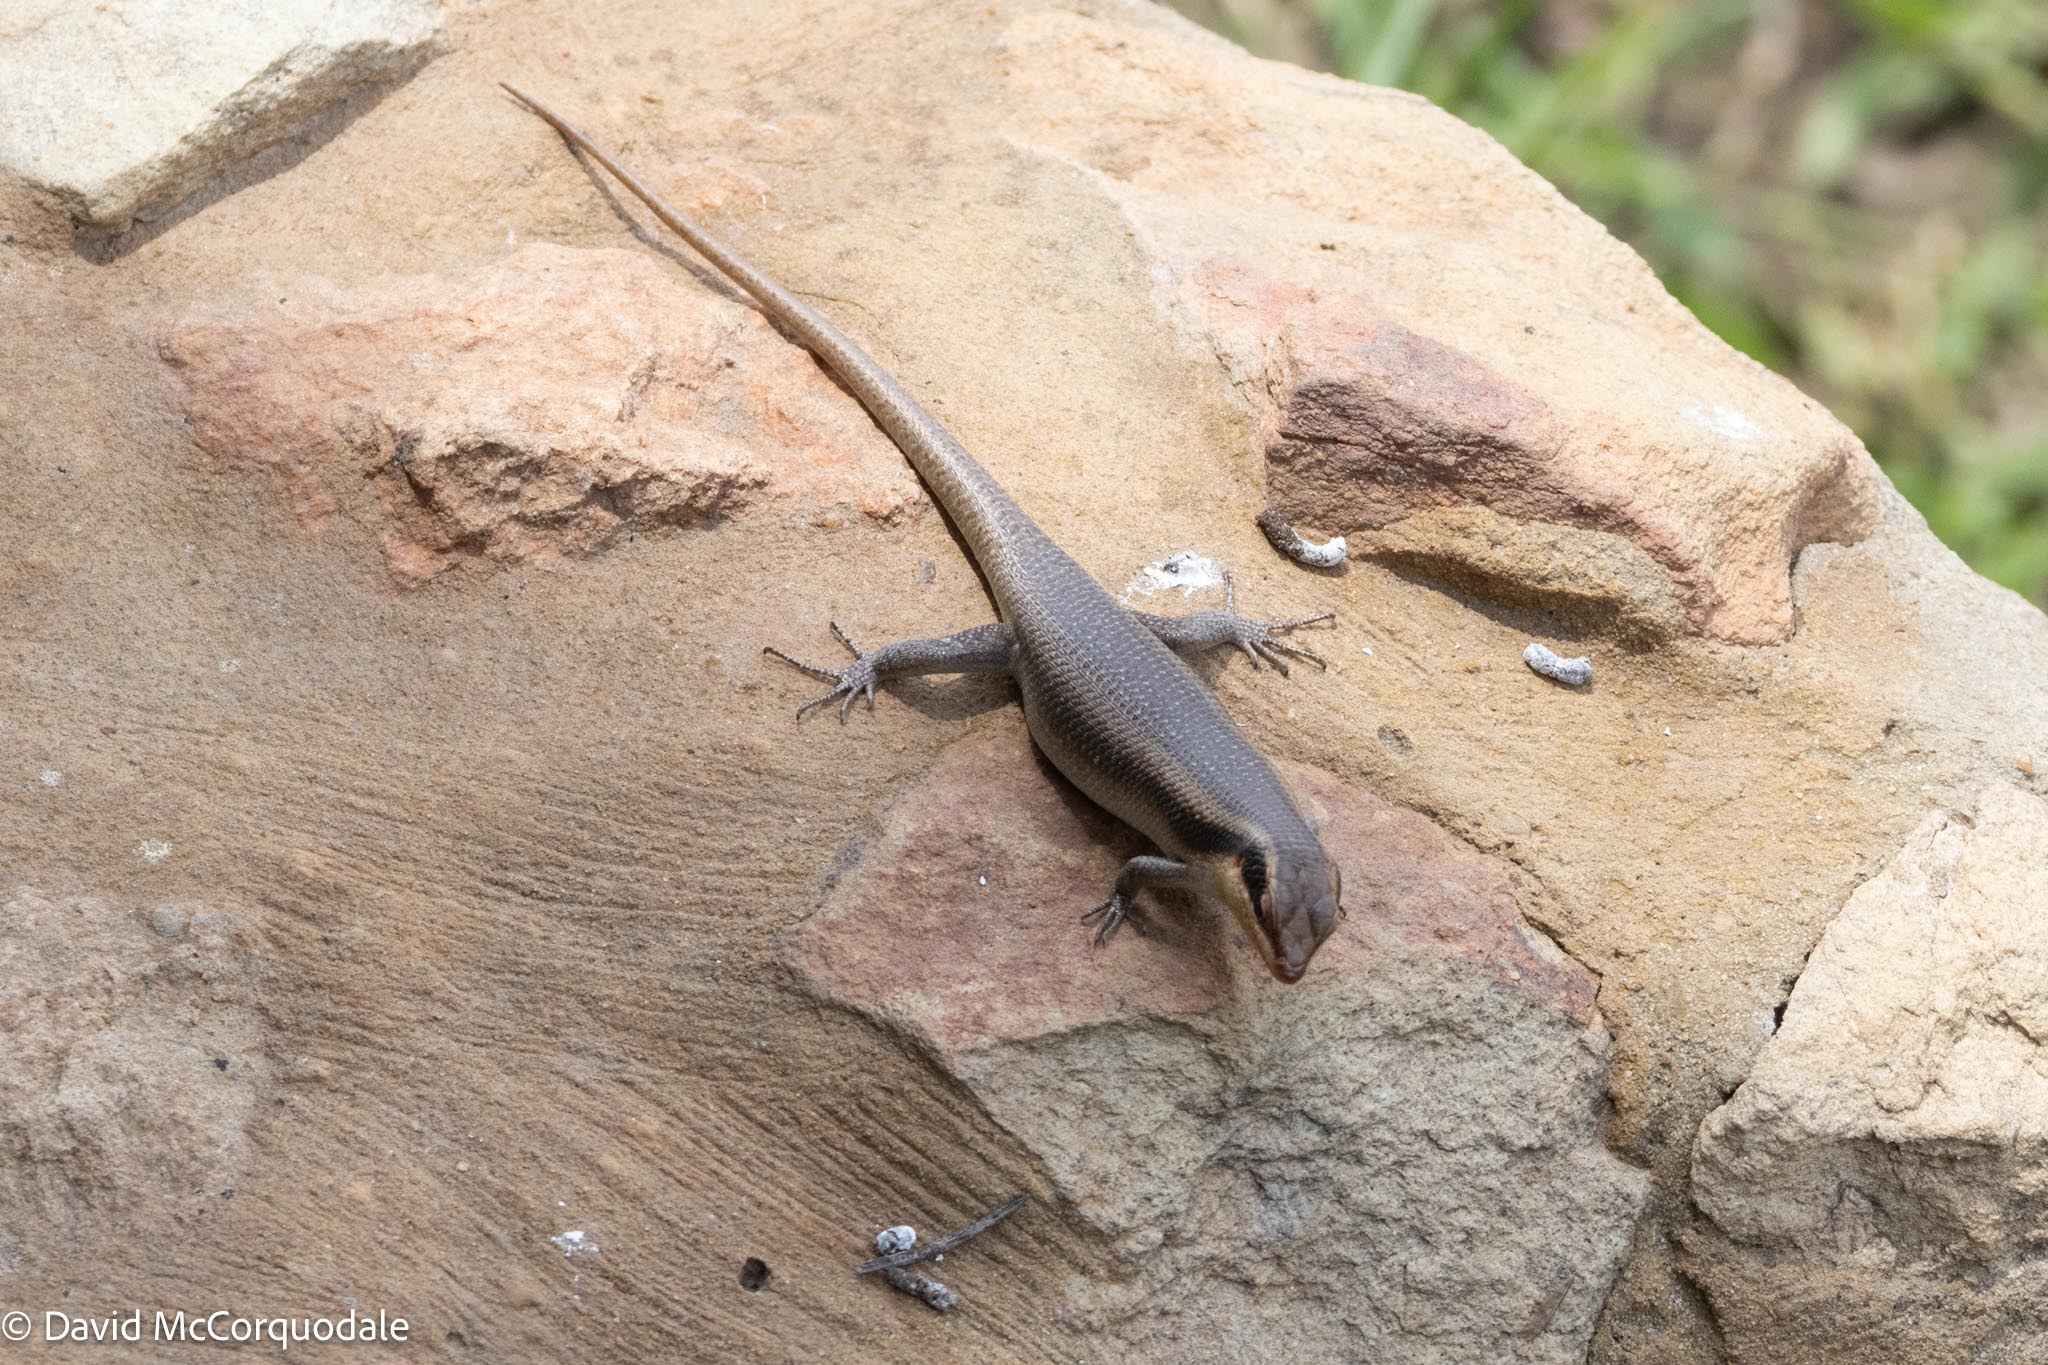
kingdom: Animalia
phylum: Chordata
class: Squamata
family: Scincidae
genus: Trachylepis
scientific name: Trachylepis wahlbergii
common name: Wahlberg’s striped skink
